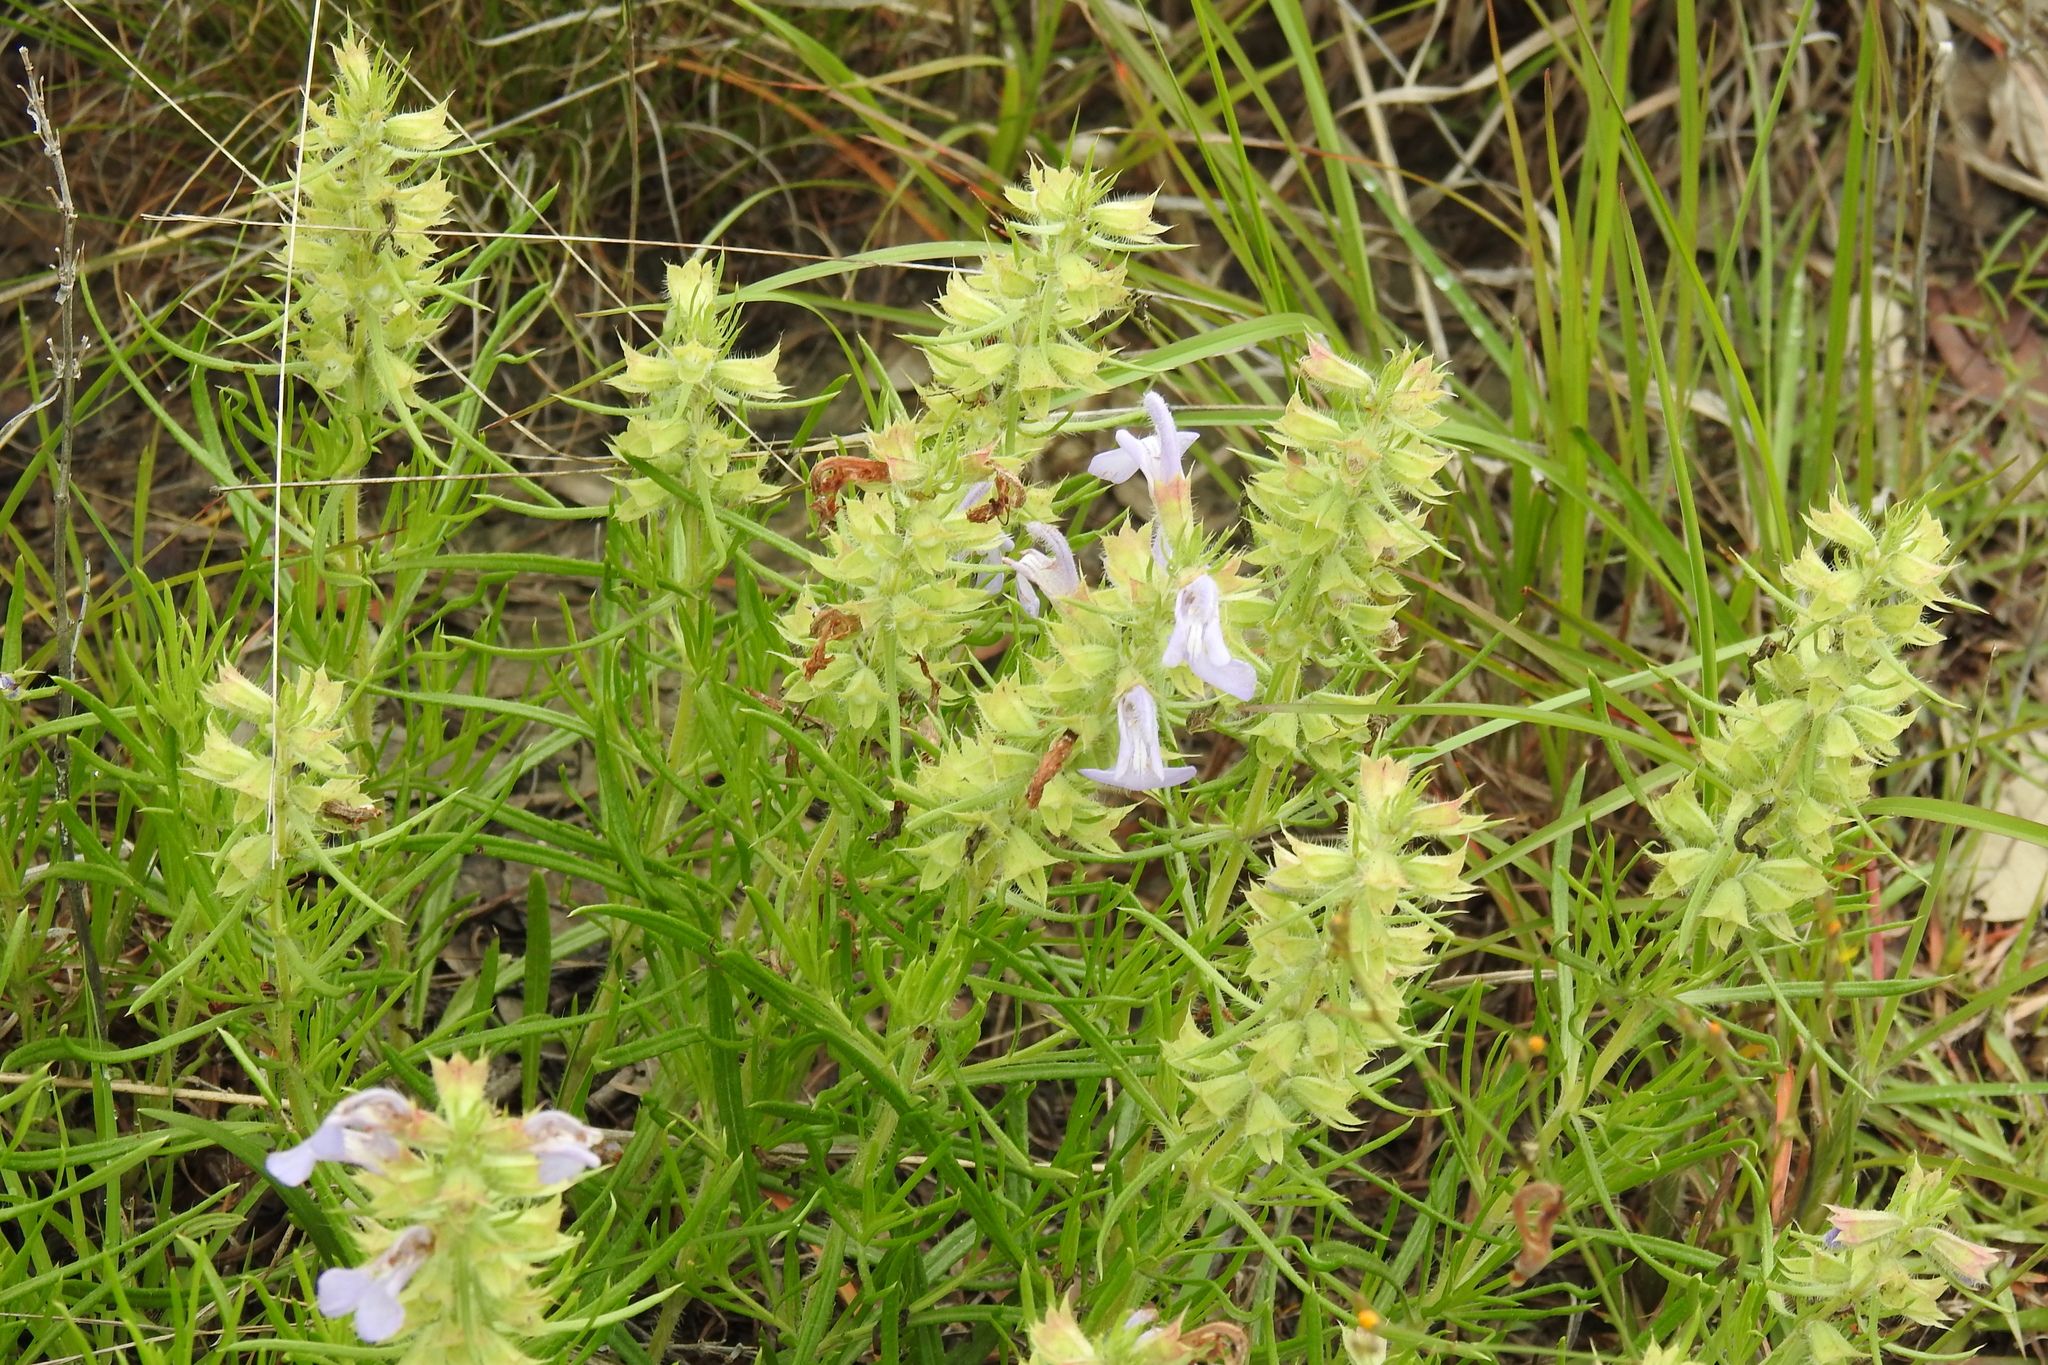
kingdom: Plantae
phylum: Tracheophyta
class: Magnoliopsida
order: Lamiales
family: Lamiaceae
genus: Salvia
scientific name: Salvia engelmannii
